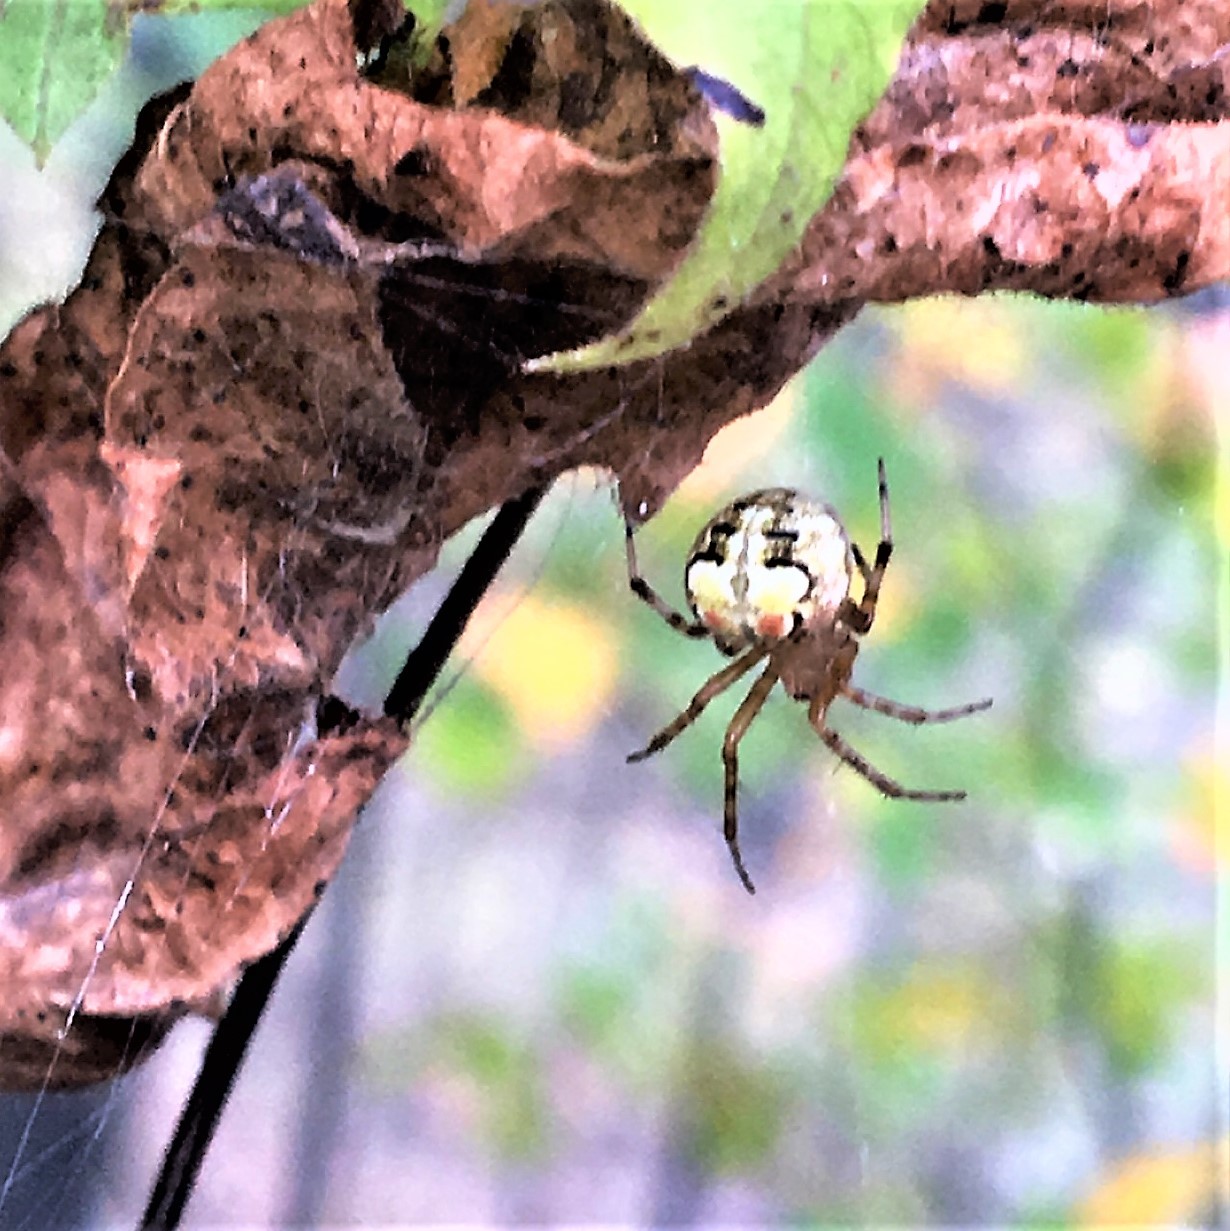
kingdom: Animalia
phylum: Arthropoda
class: Arachnida
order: Araneae
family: Araneidae
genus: Araneus
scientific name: Araneus pegnia
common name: Orb weavers
